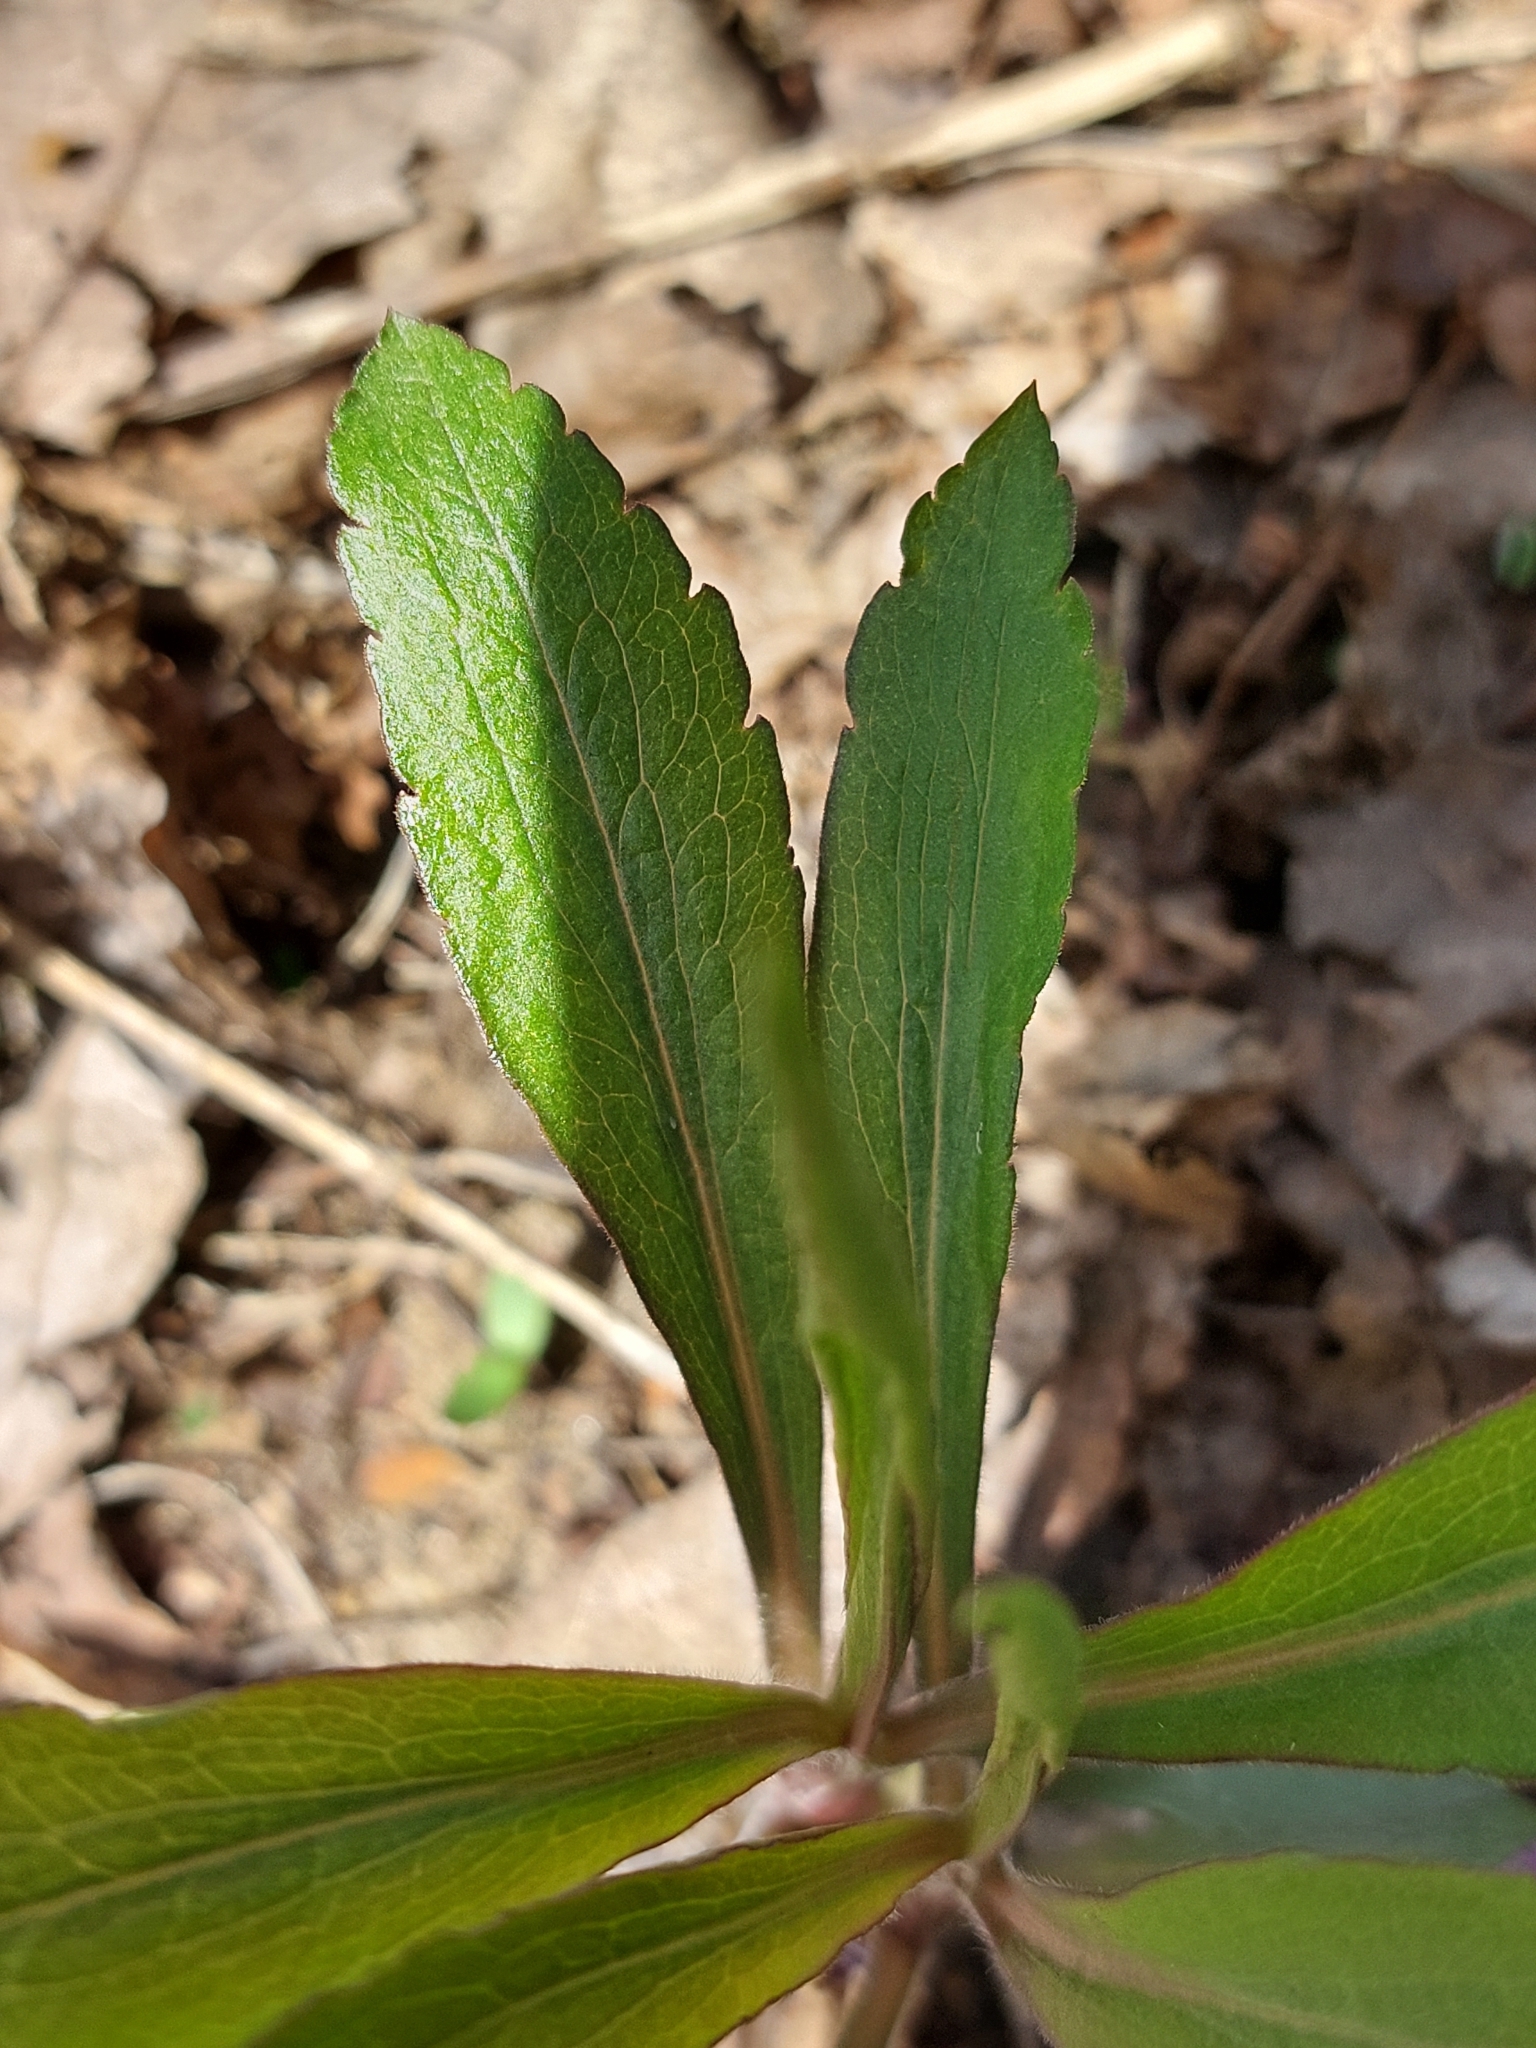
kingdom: Plantae
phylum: Tracheophyta
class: Magnoliopsida
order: Asterales
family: Asteraceae
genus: Solidago
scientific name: Solidago gigantea
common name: Giant goldenrod
